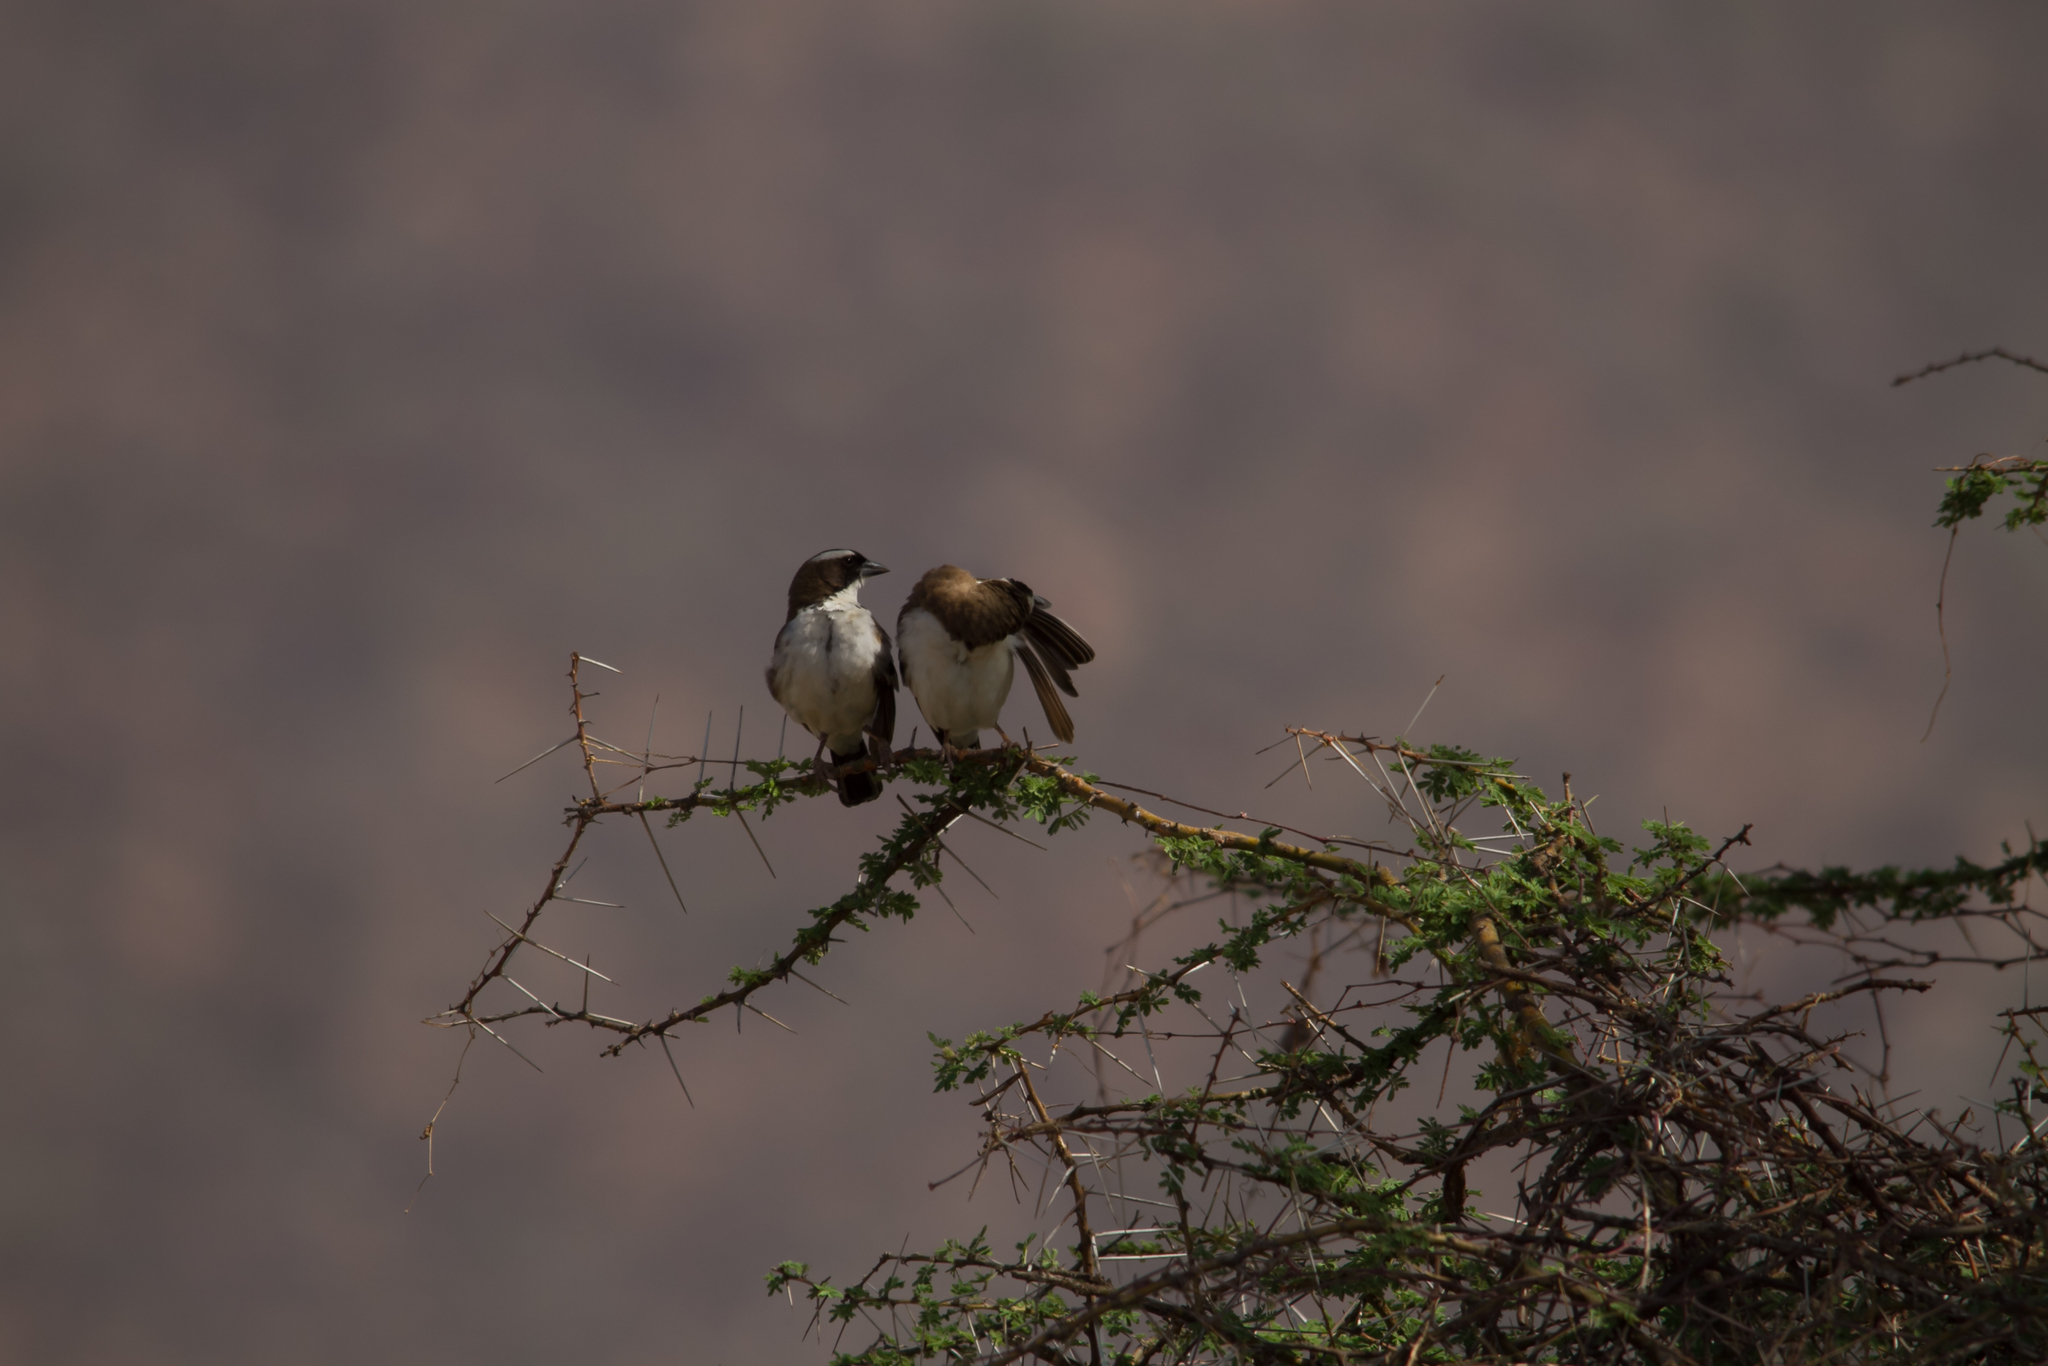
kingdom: Animalia
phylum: Chordata
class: Aves
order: Passeriformes
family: Passeridae
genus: Plocepasser
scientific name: Plocepasser mahali
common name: White-browed sparrow-weaver
